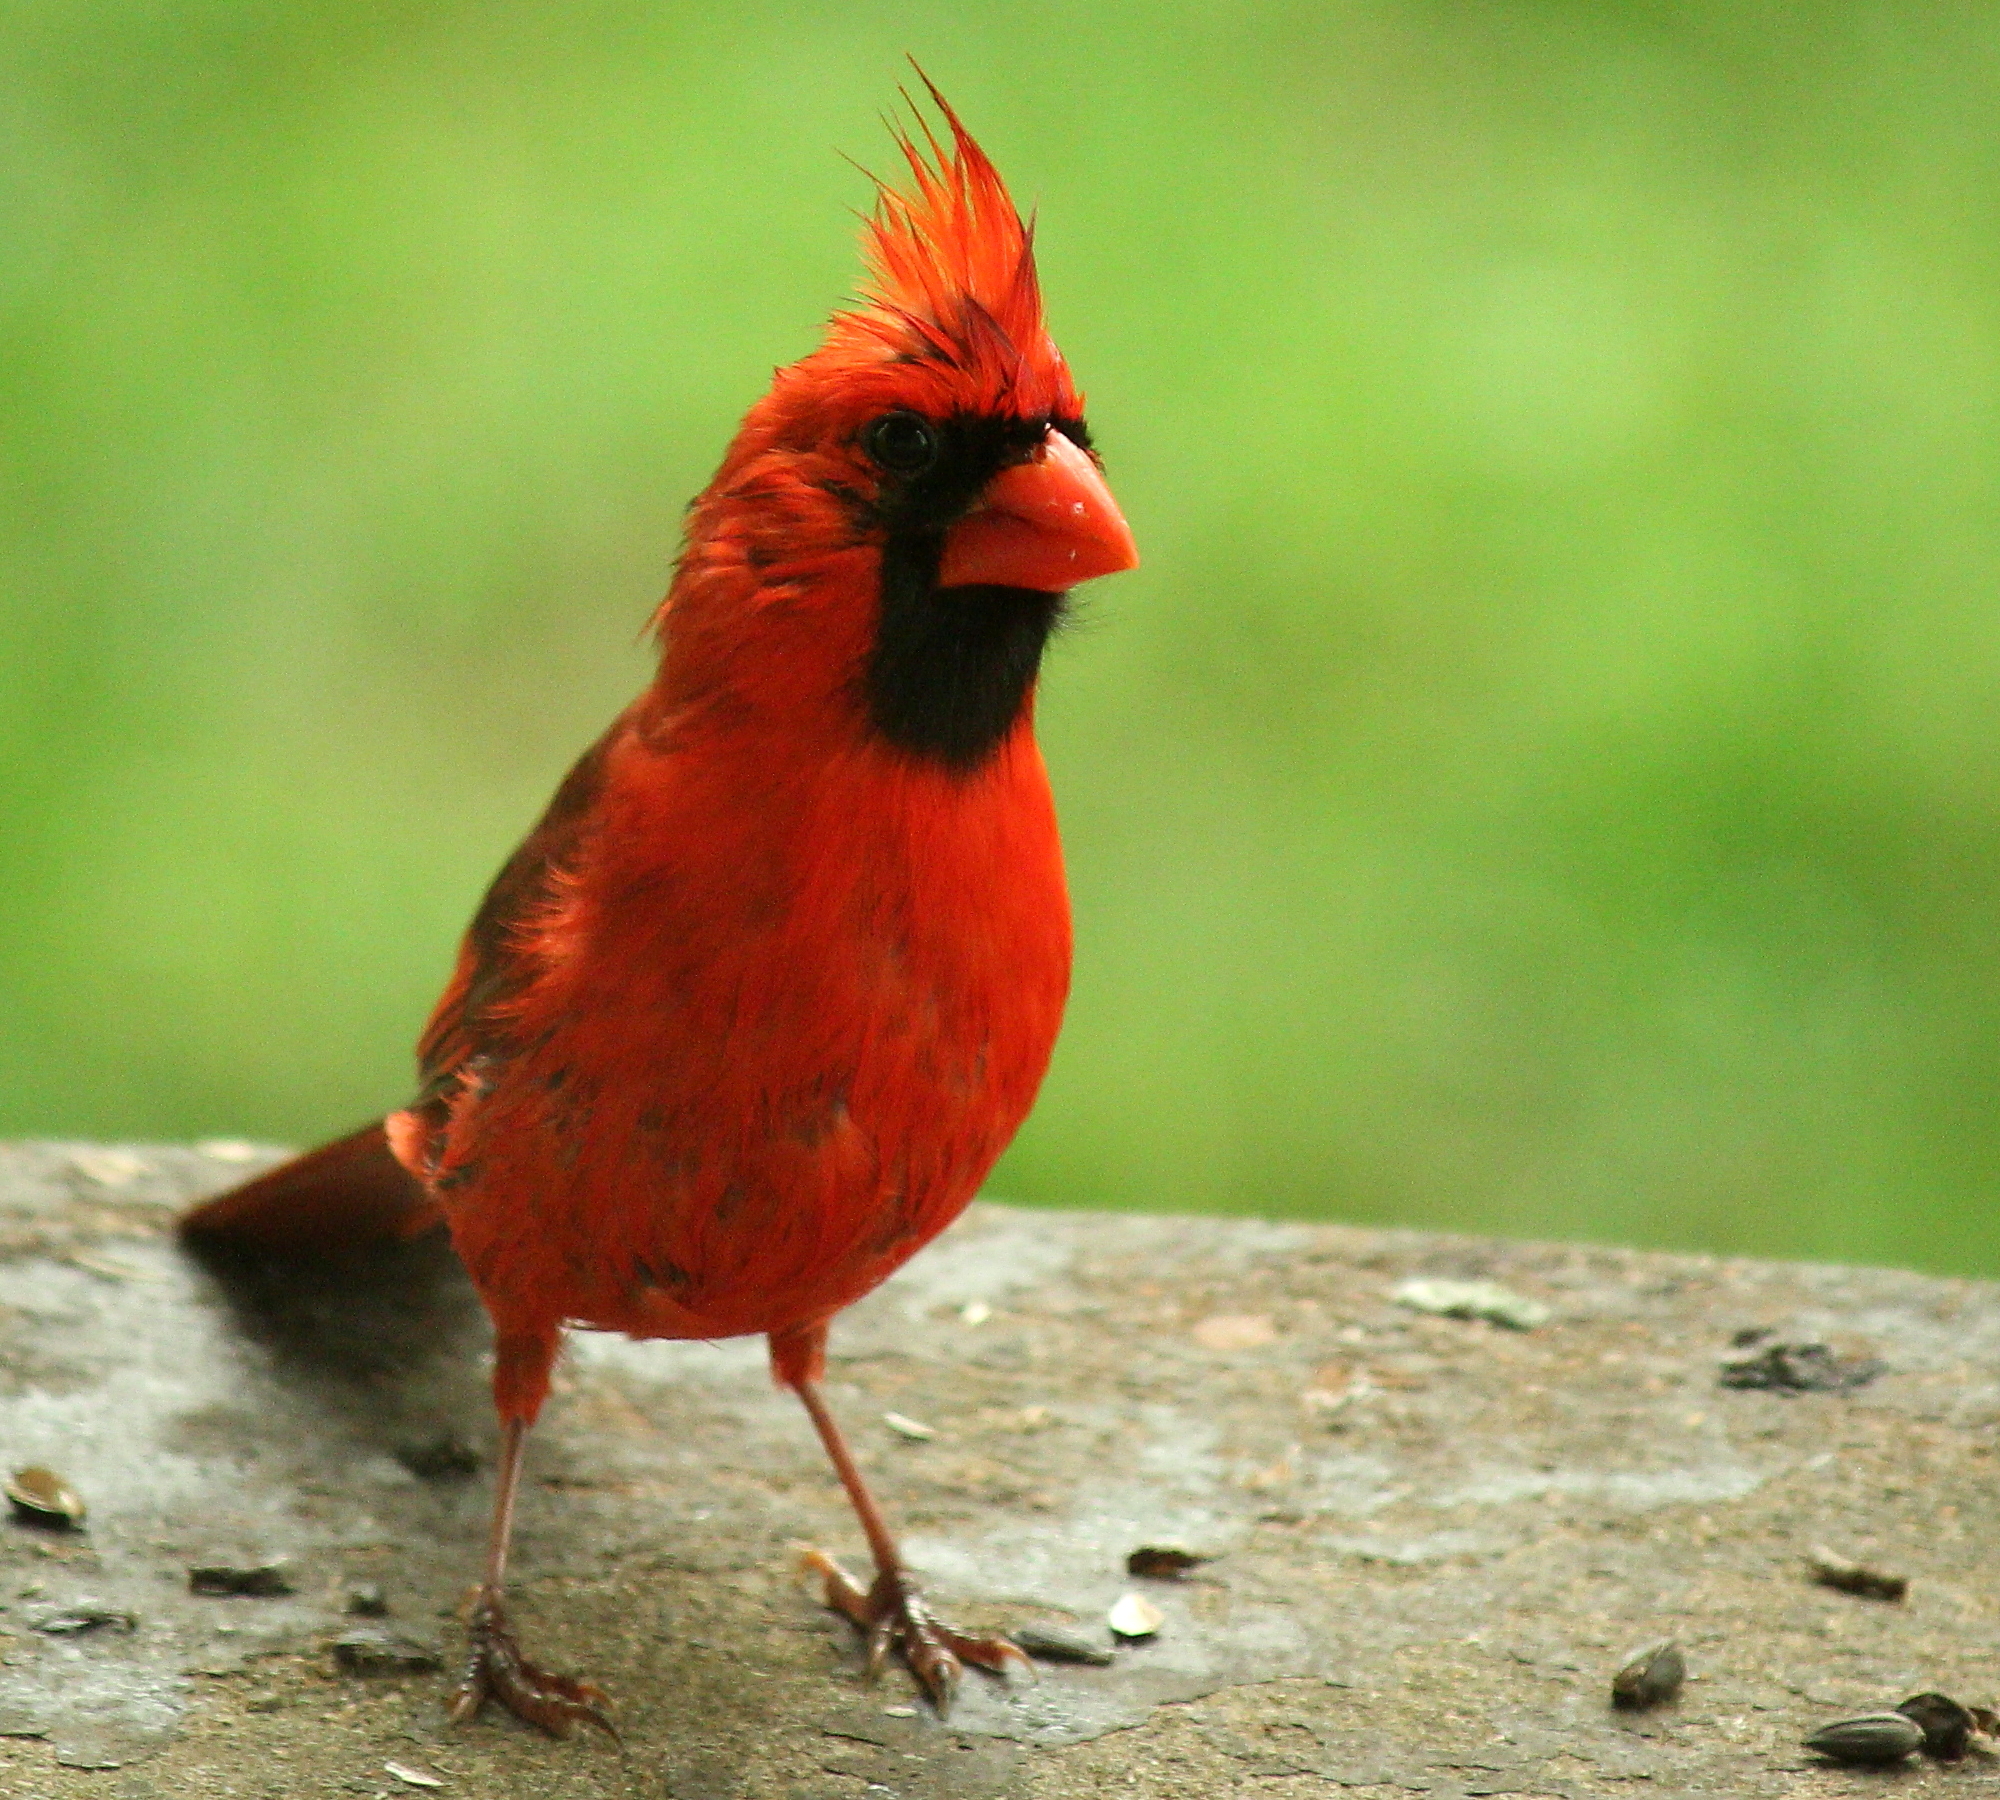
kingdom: Animalia
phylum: Chordata
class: Aves
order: Passeriformes
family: Cardinalidae
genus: Cardinalis
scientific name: Cardinalis cardinalis
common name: Northern cardinal
